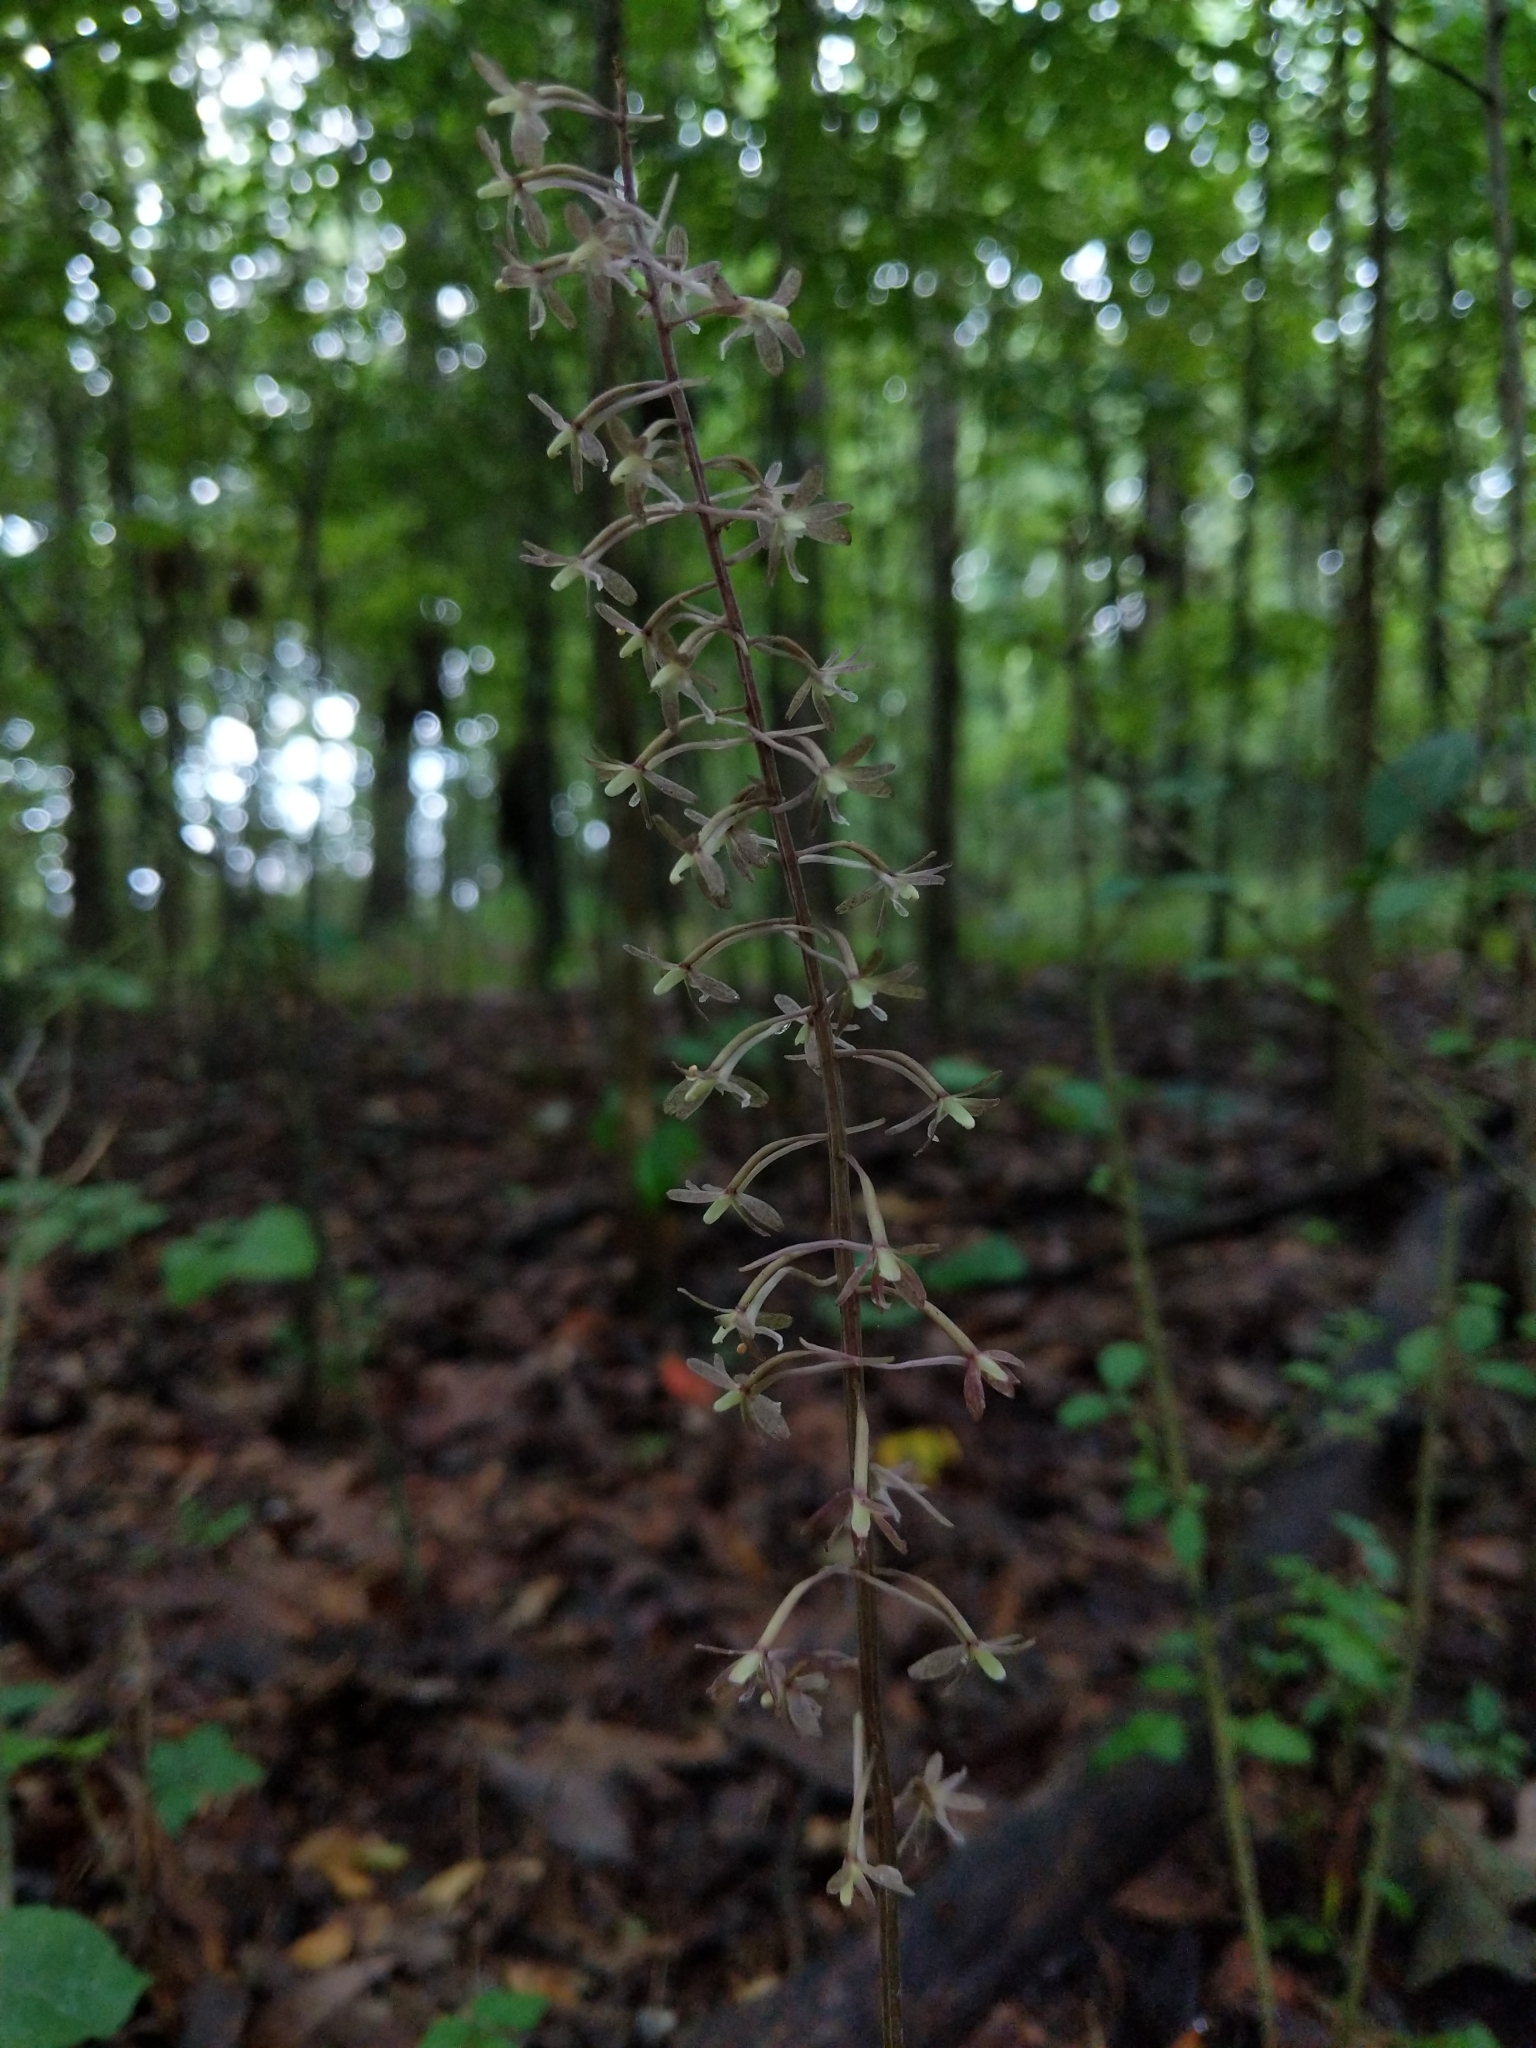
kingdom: Plantae
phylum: Tracheophyta
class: Liliopsida
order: Asparagales
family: Orchidaceae
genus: Tipularia
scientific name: Tipularia discolor
